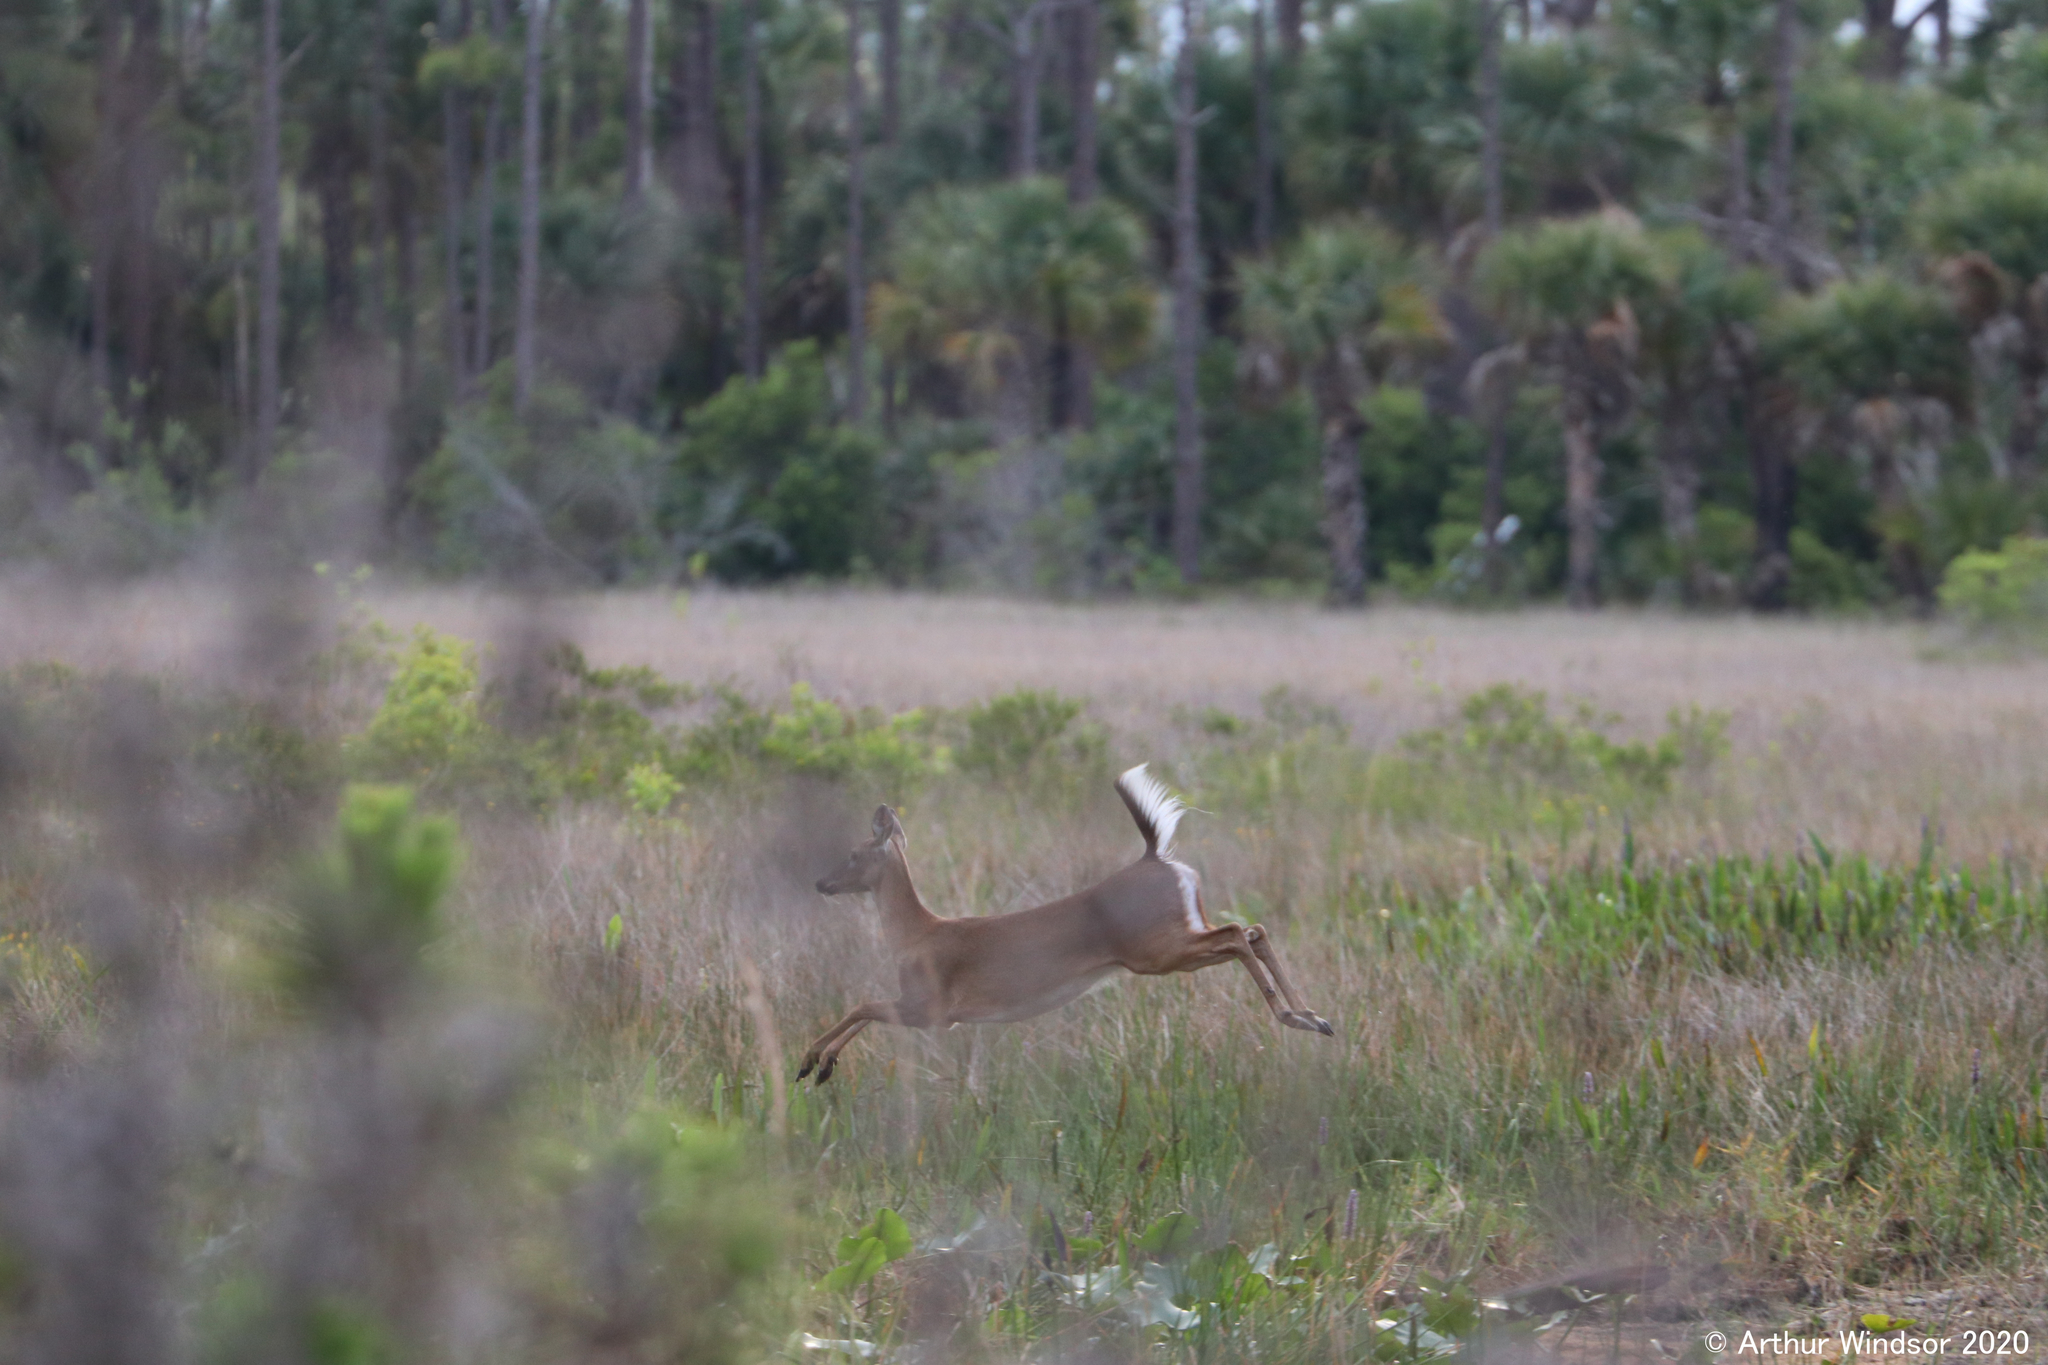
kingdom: Animalia
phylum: Chordata
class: Mammalia
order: Artiodactyla
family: Cervidae
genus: Odocoileus
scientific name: Odocoileus virginianus
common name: White-tailed deer
